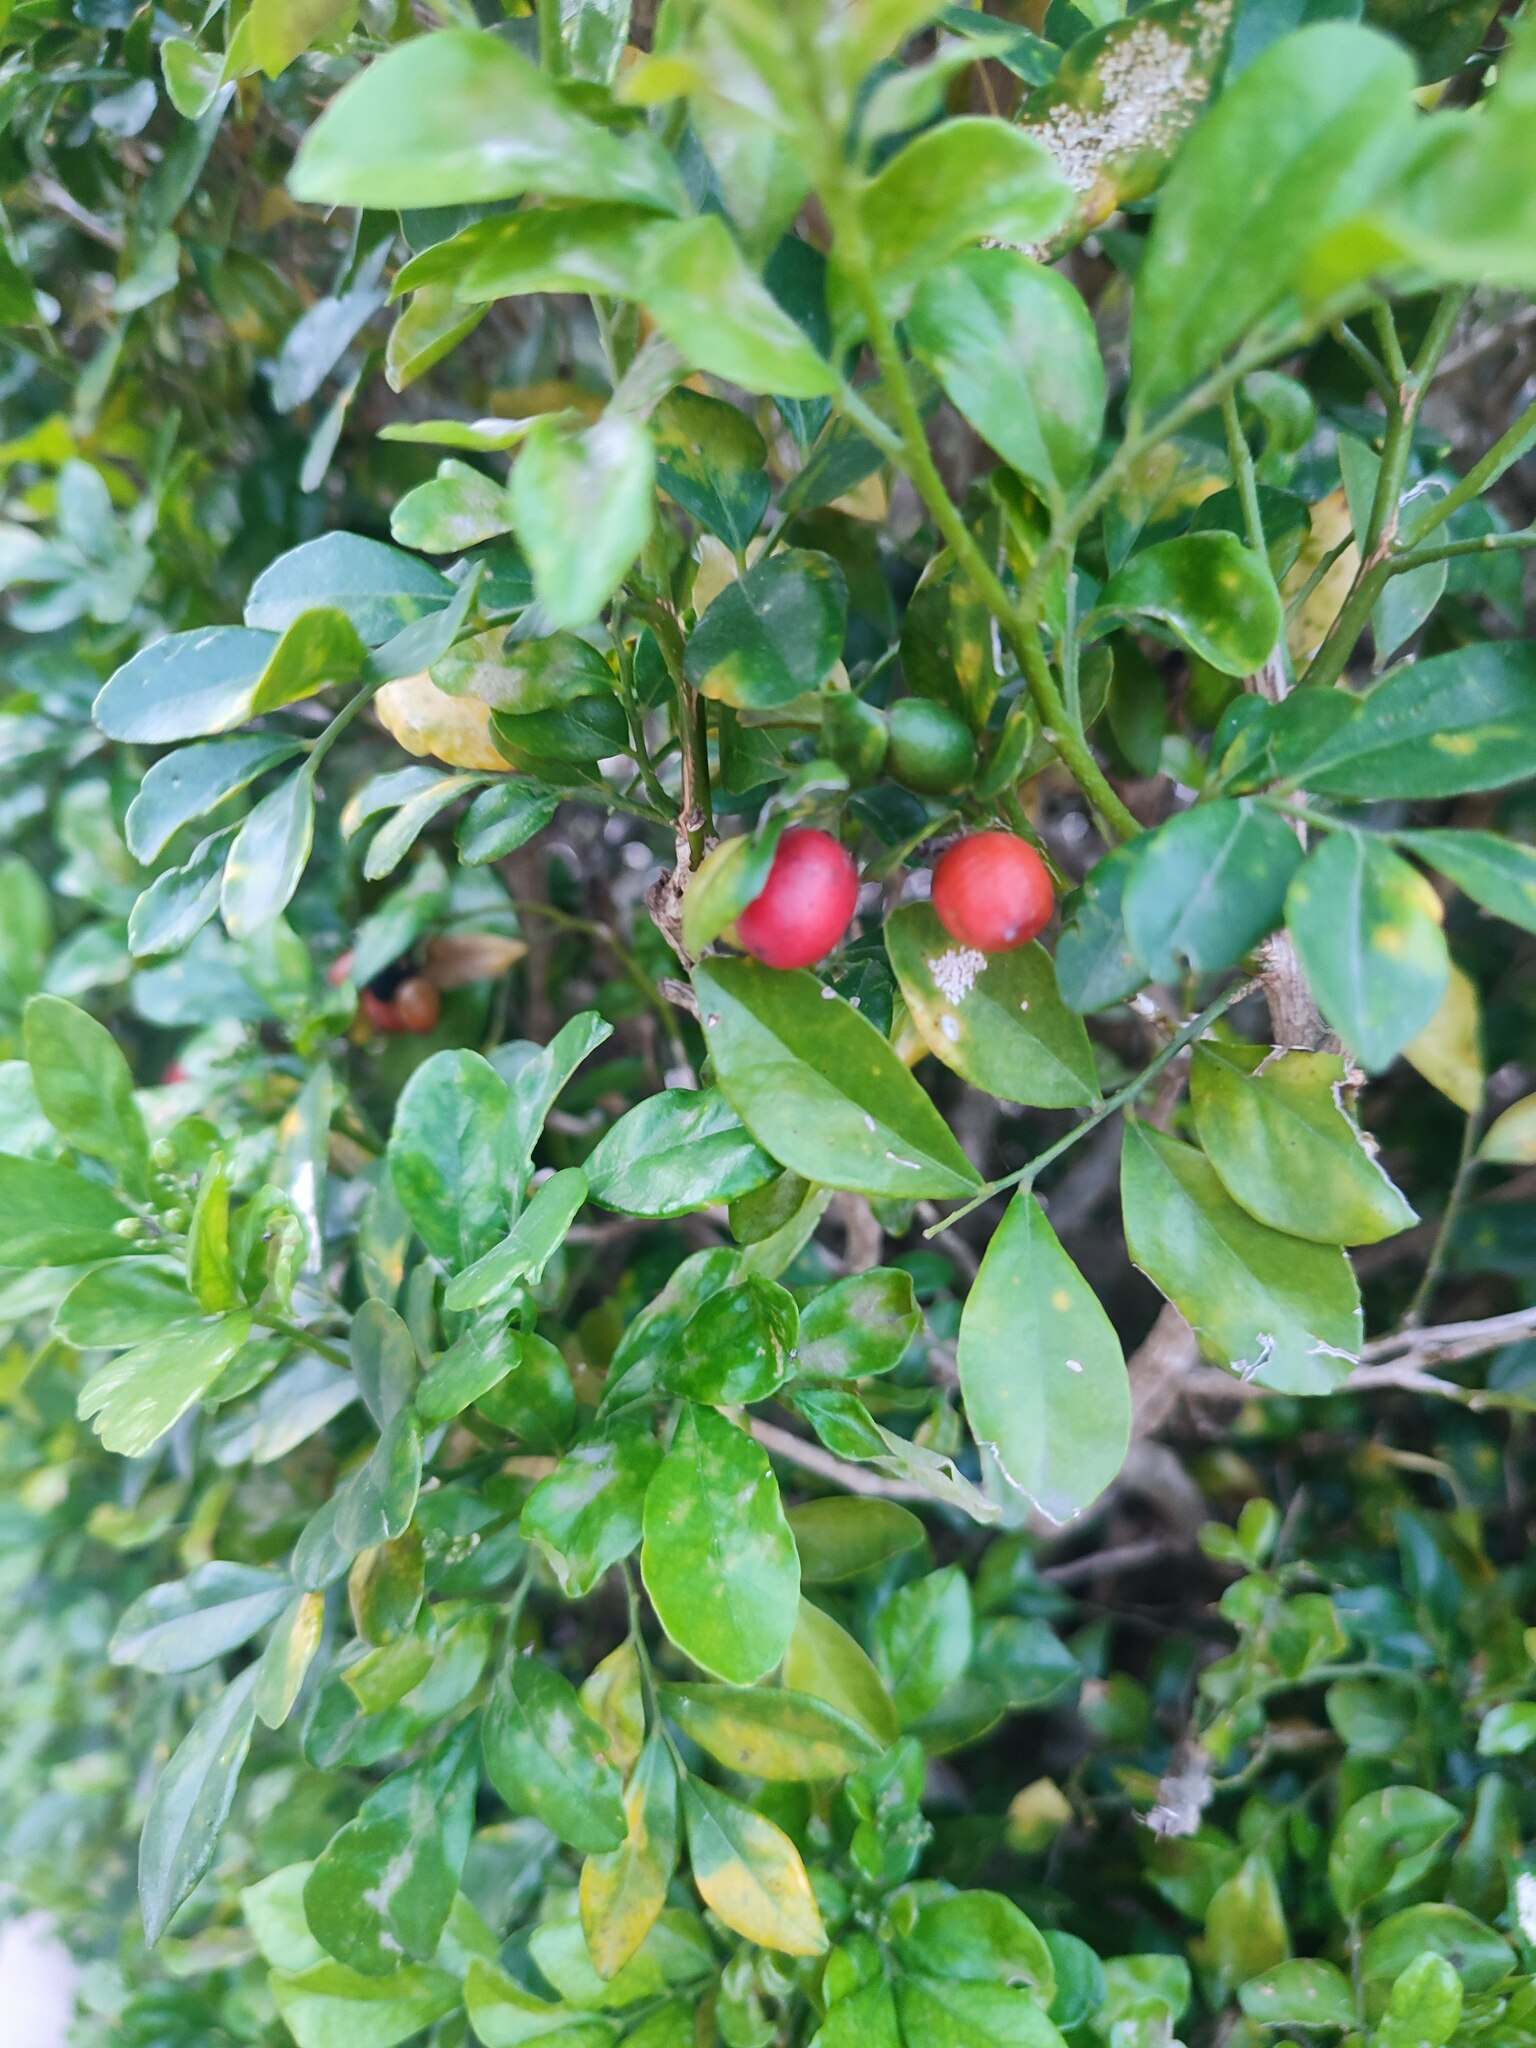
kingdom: Plantae
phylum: Tracheophyta
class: Magnoliopsida
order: Sapindales
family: Rutaceae
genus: Murraya
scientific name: Murraya paniculata
